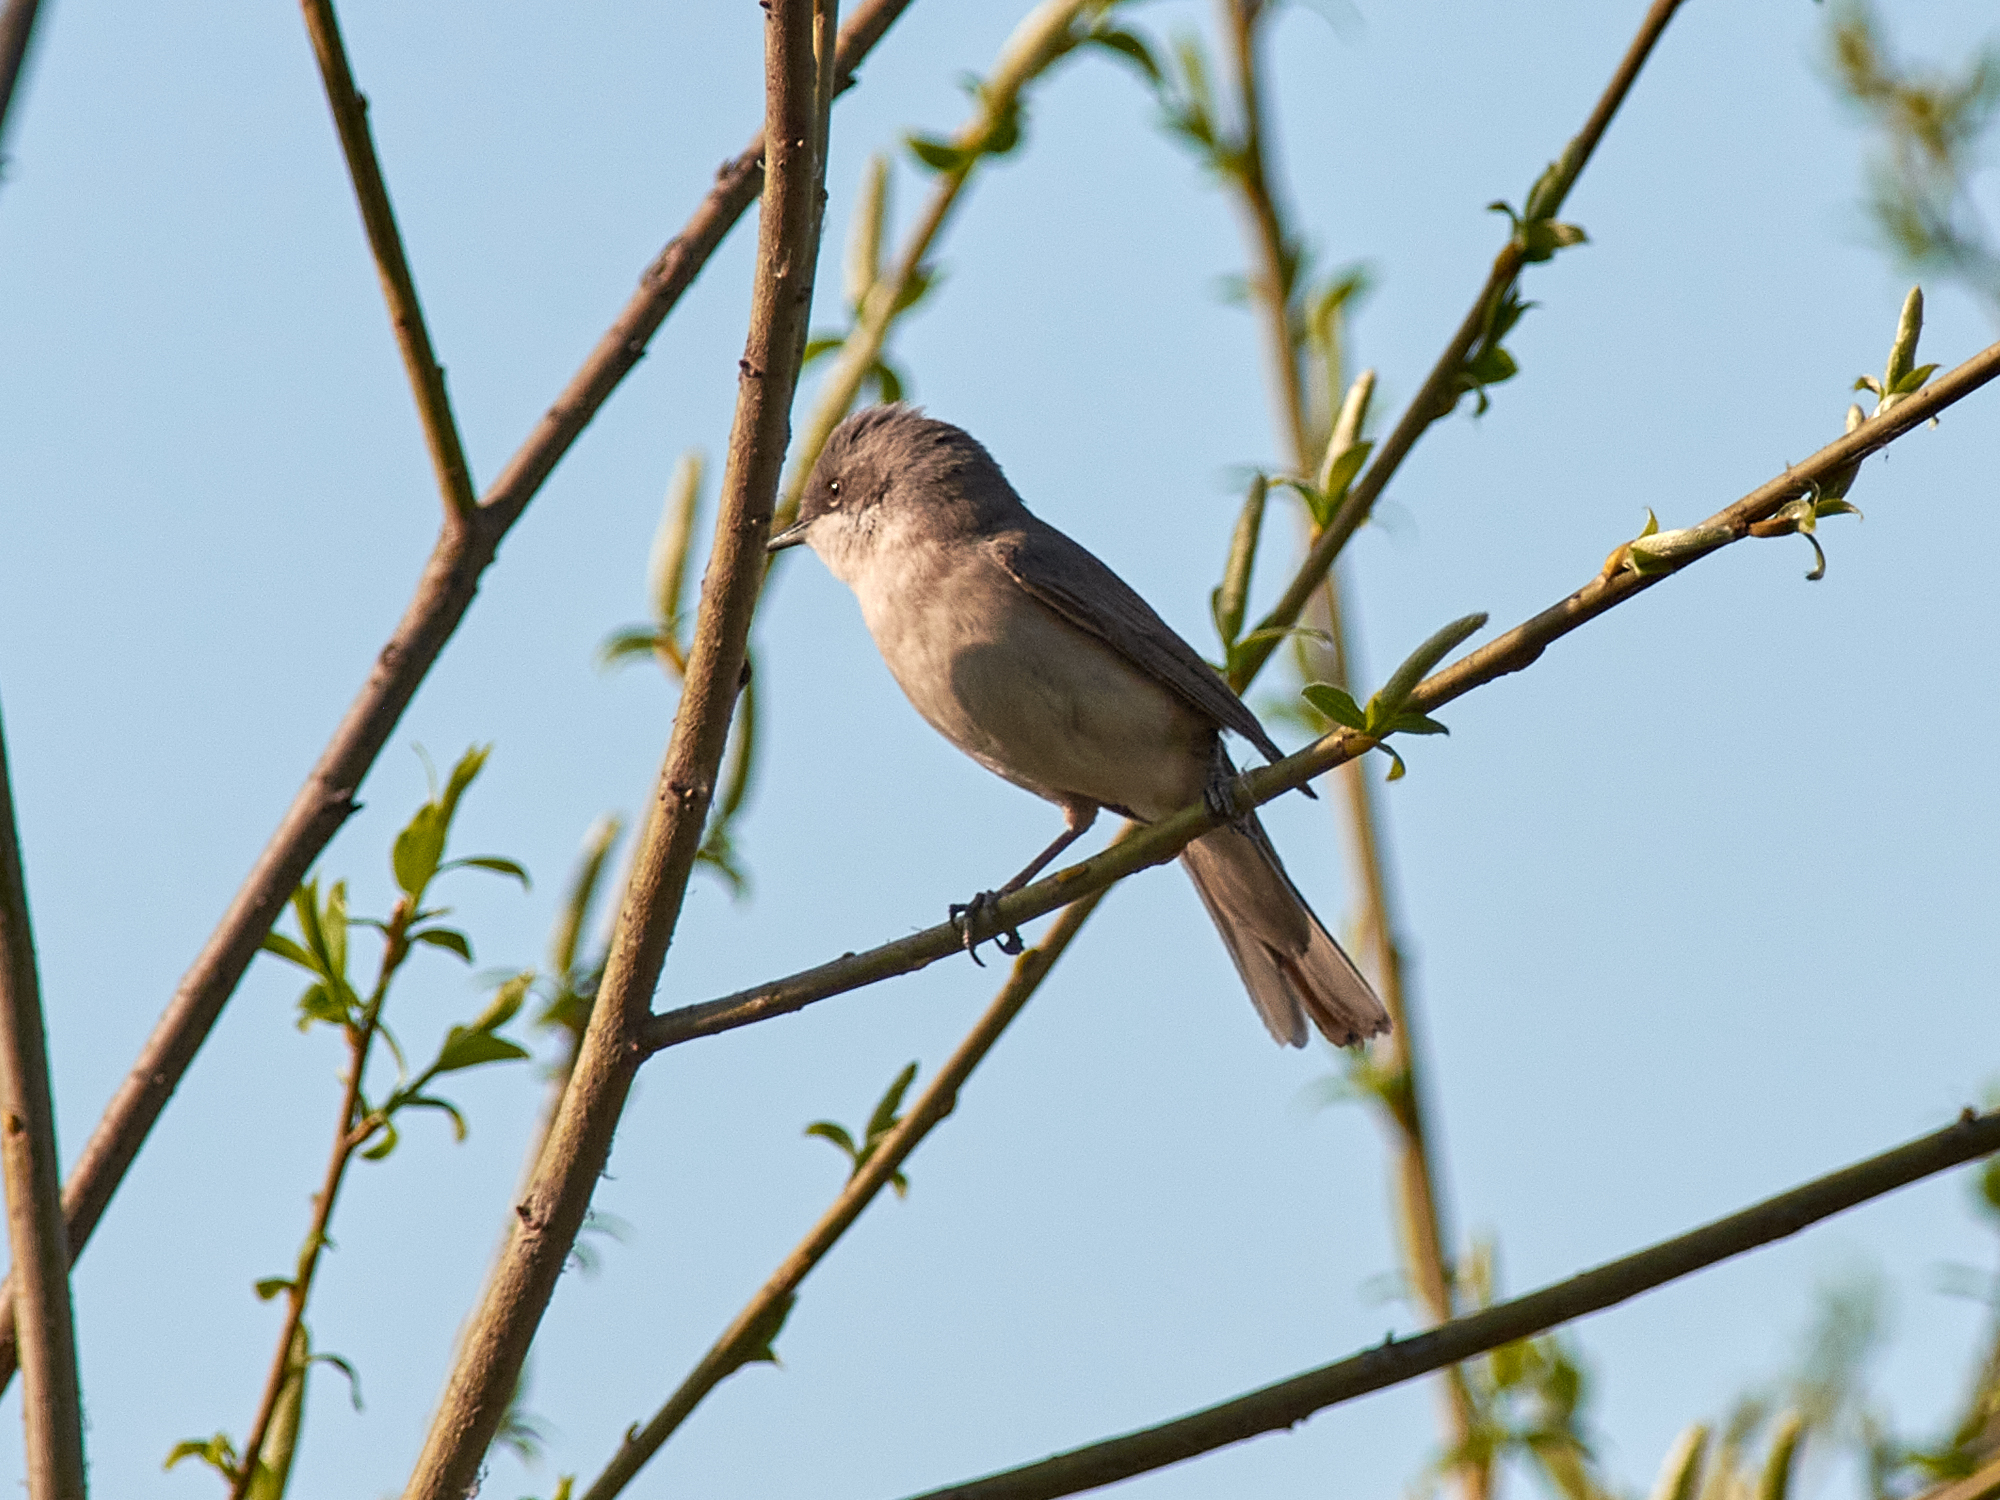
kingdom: Animalia
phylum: Chordata
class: Aves
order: Passeriformes
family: Sylviidae
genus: Sylvia
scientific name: Sylvia curruca
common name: Lesser whitethroat
